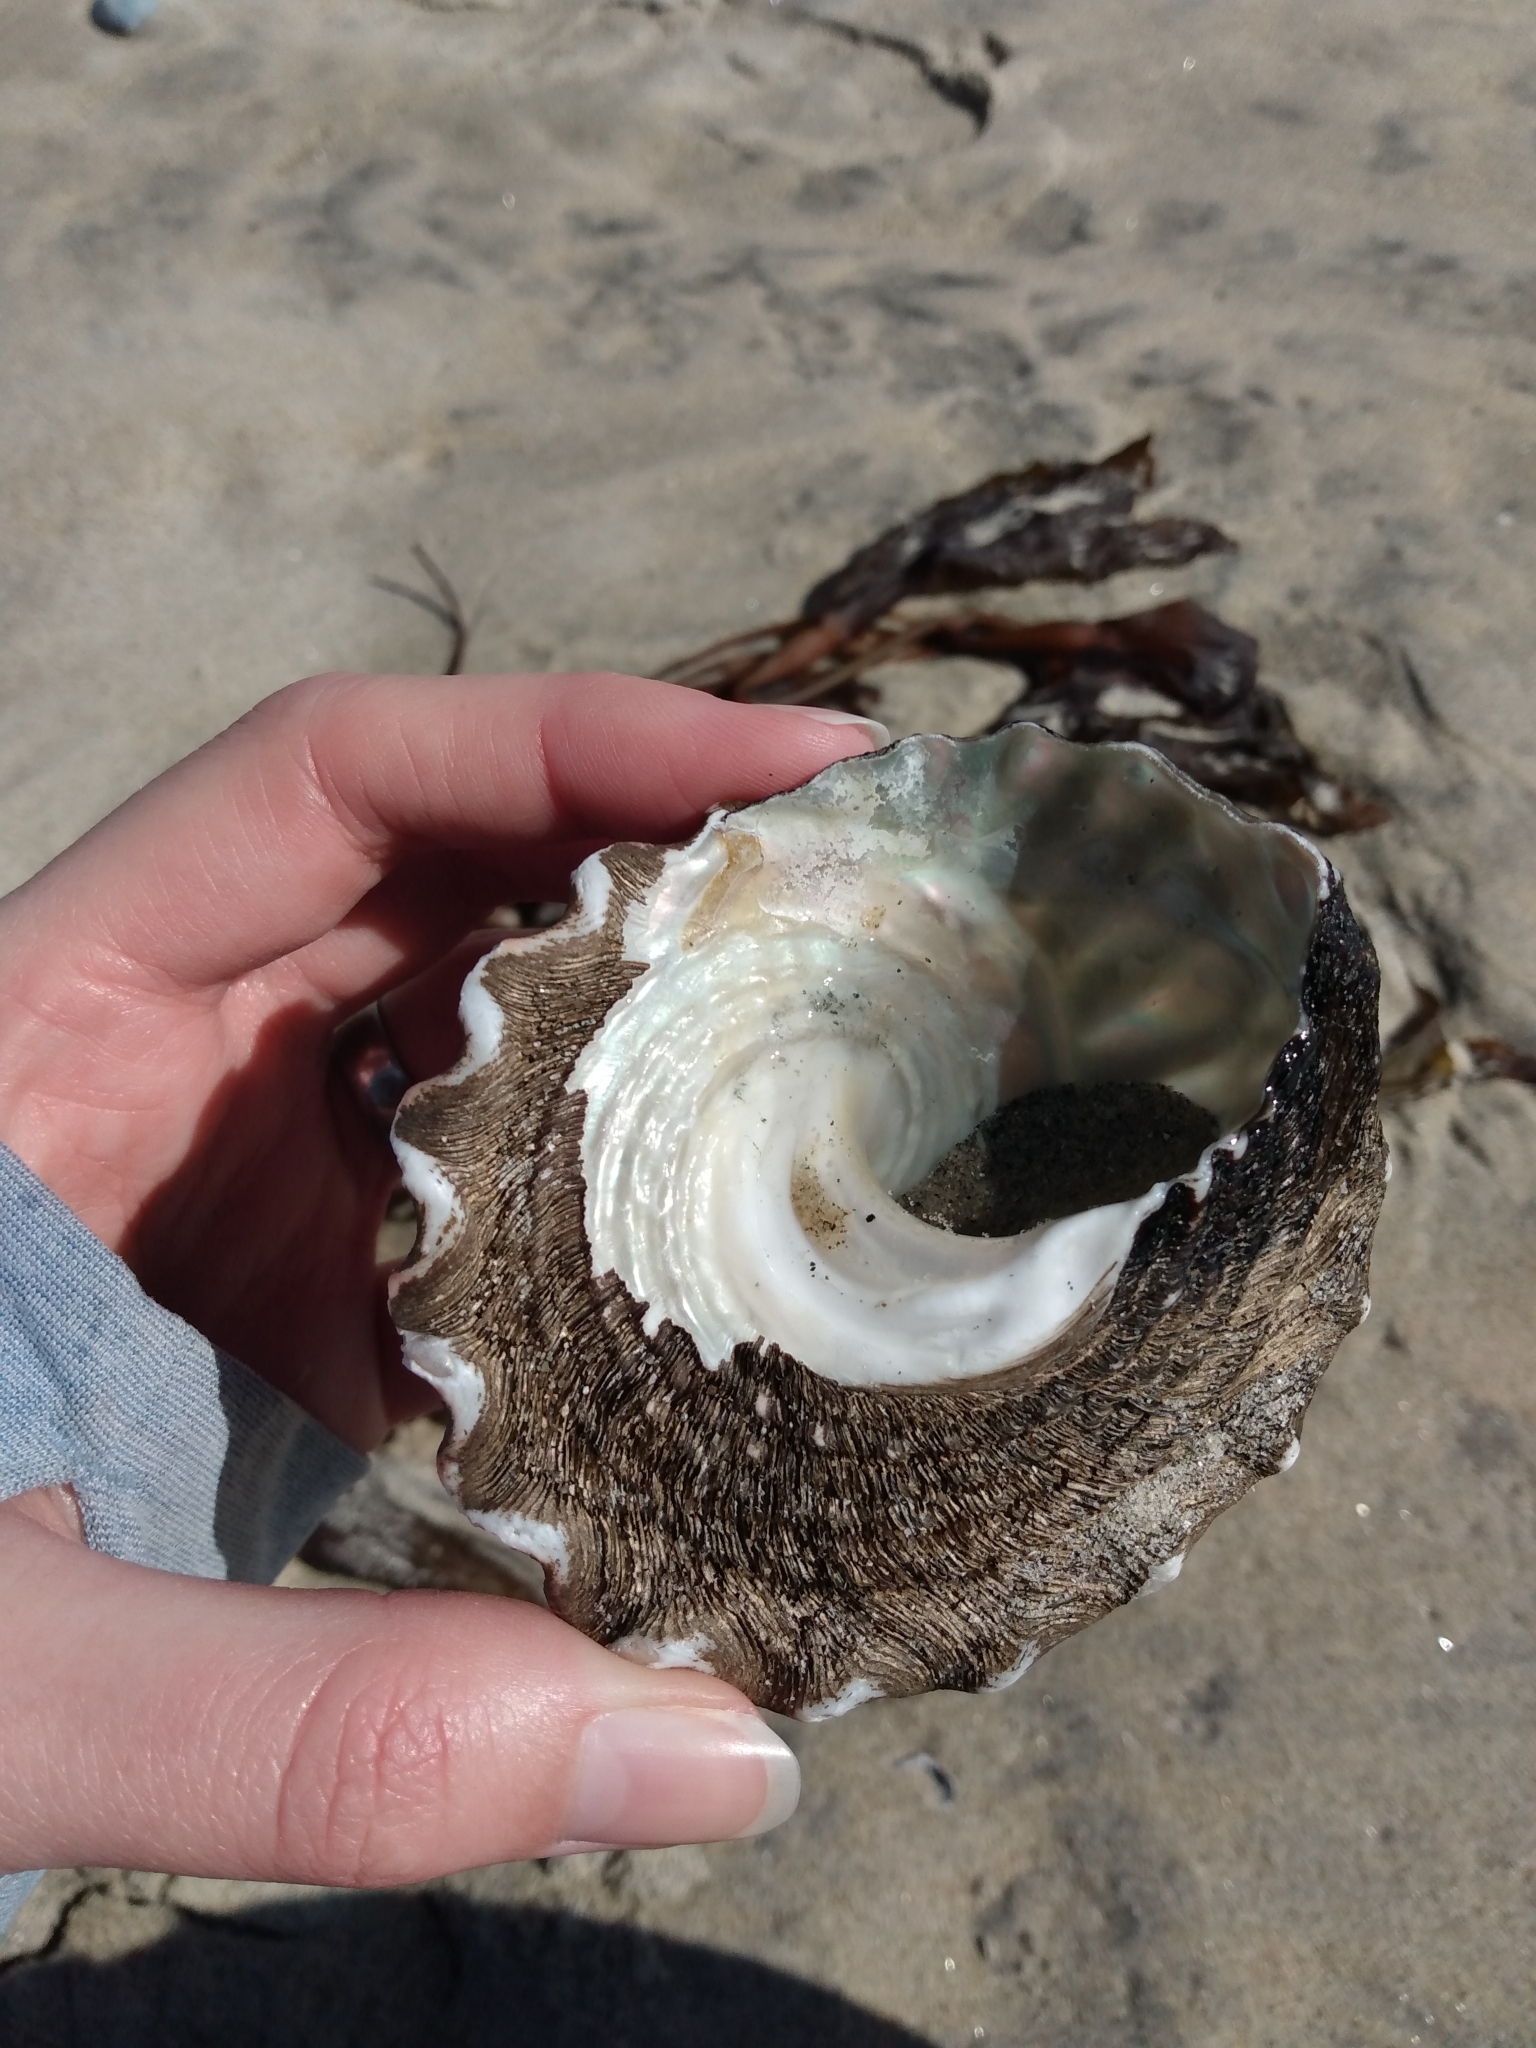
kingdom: Animalia
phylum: Mollusca
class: Gastropoda
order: Trochida
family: Turbinidae
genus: Megastraea
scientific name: Megastraea undosa
